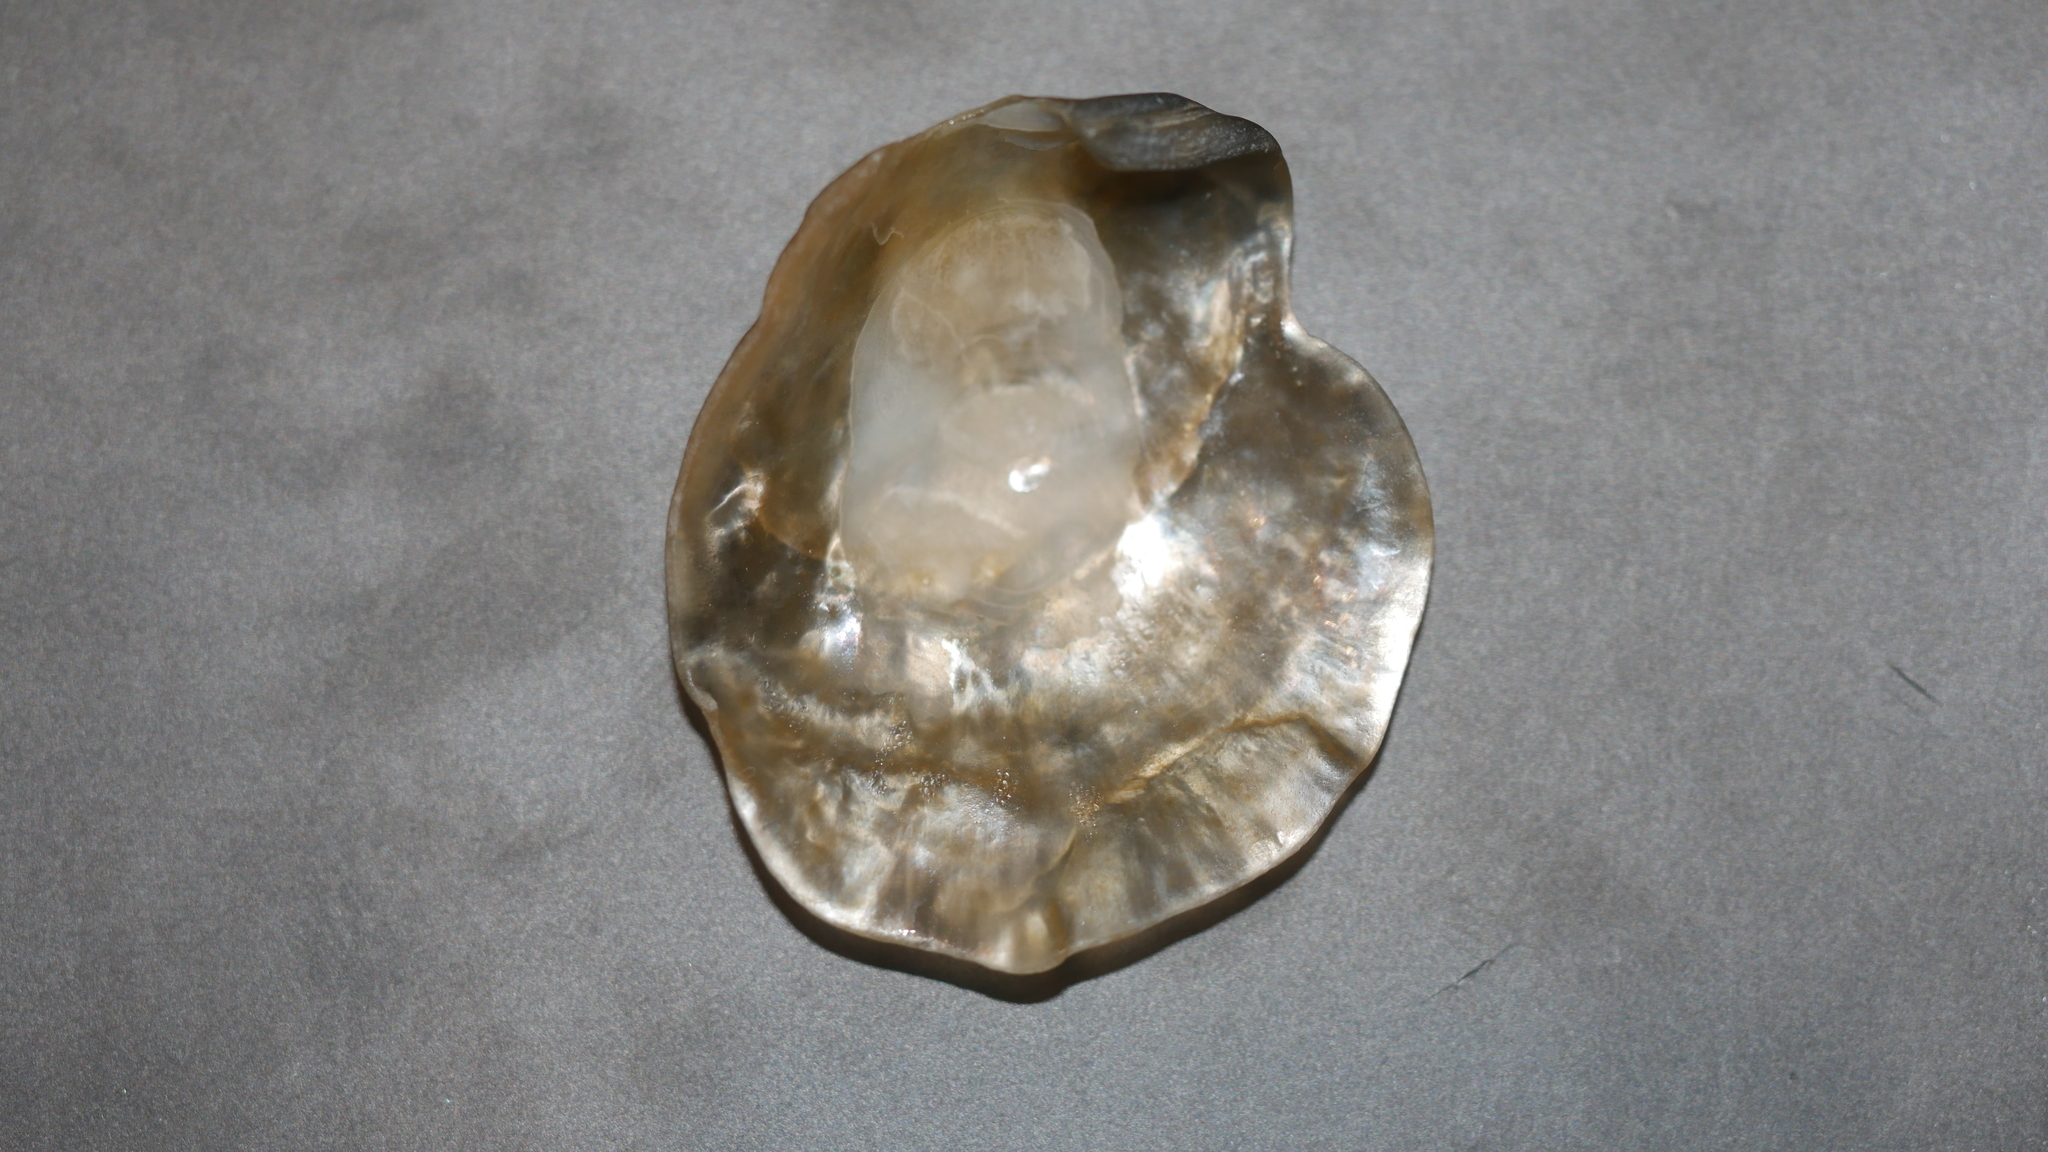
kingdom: Animalia
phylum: Mollusca
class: Bivalvia
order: Pectinida
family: Anomiidae
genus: Anomia
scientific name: Anomia simplex
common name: Common jingle shell
